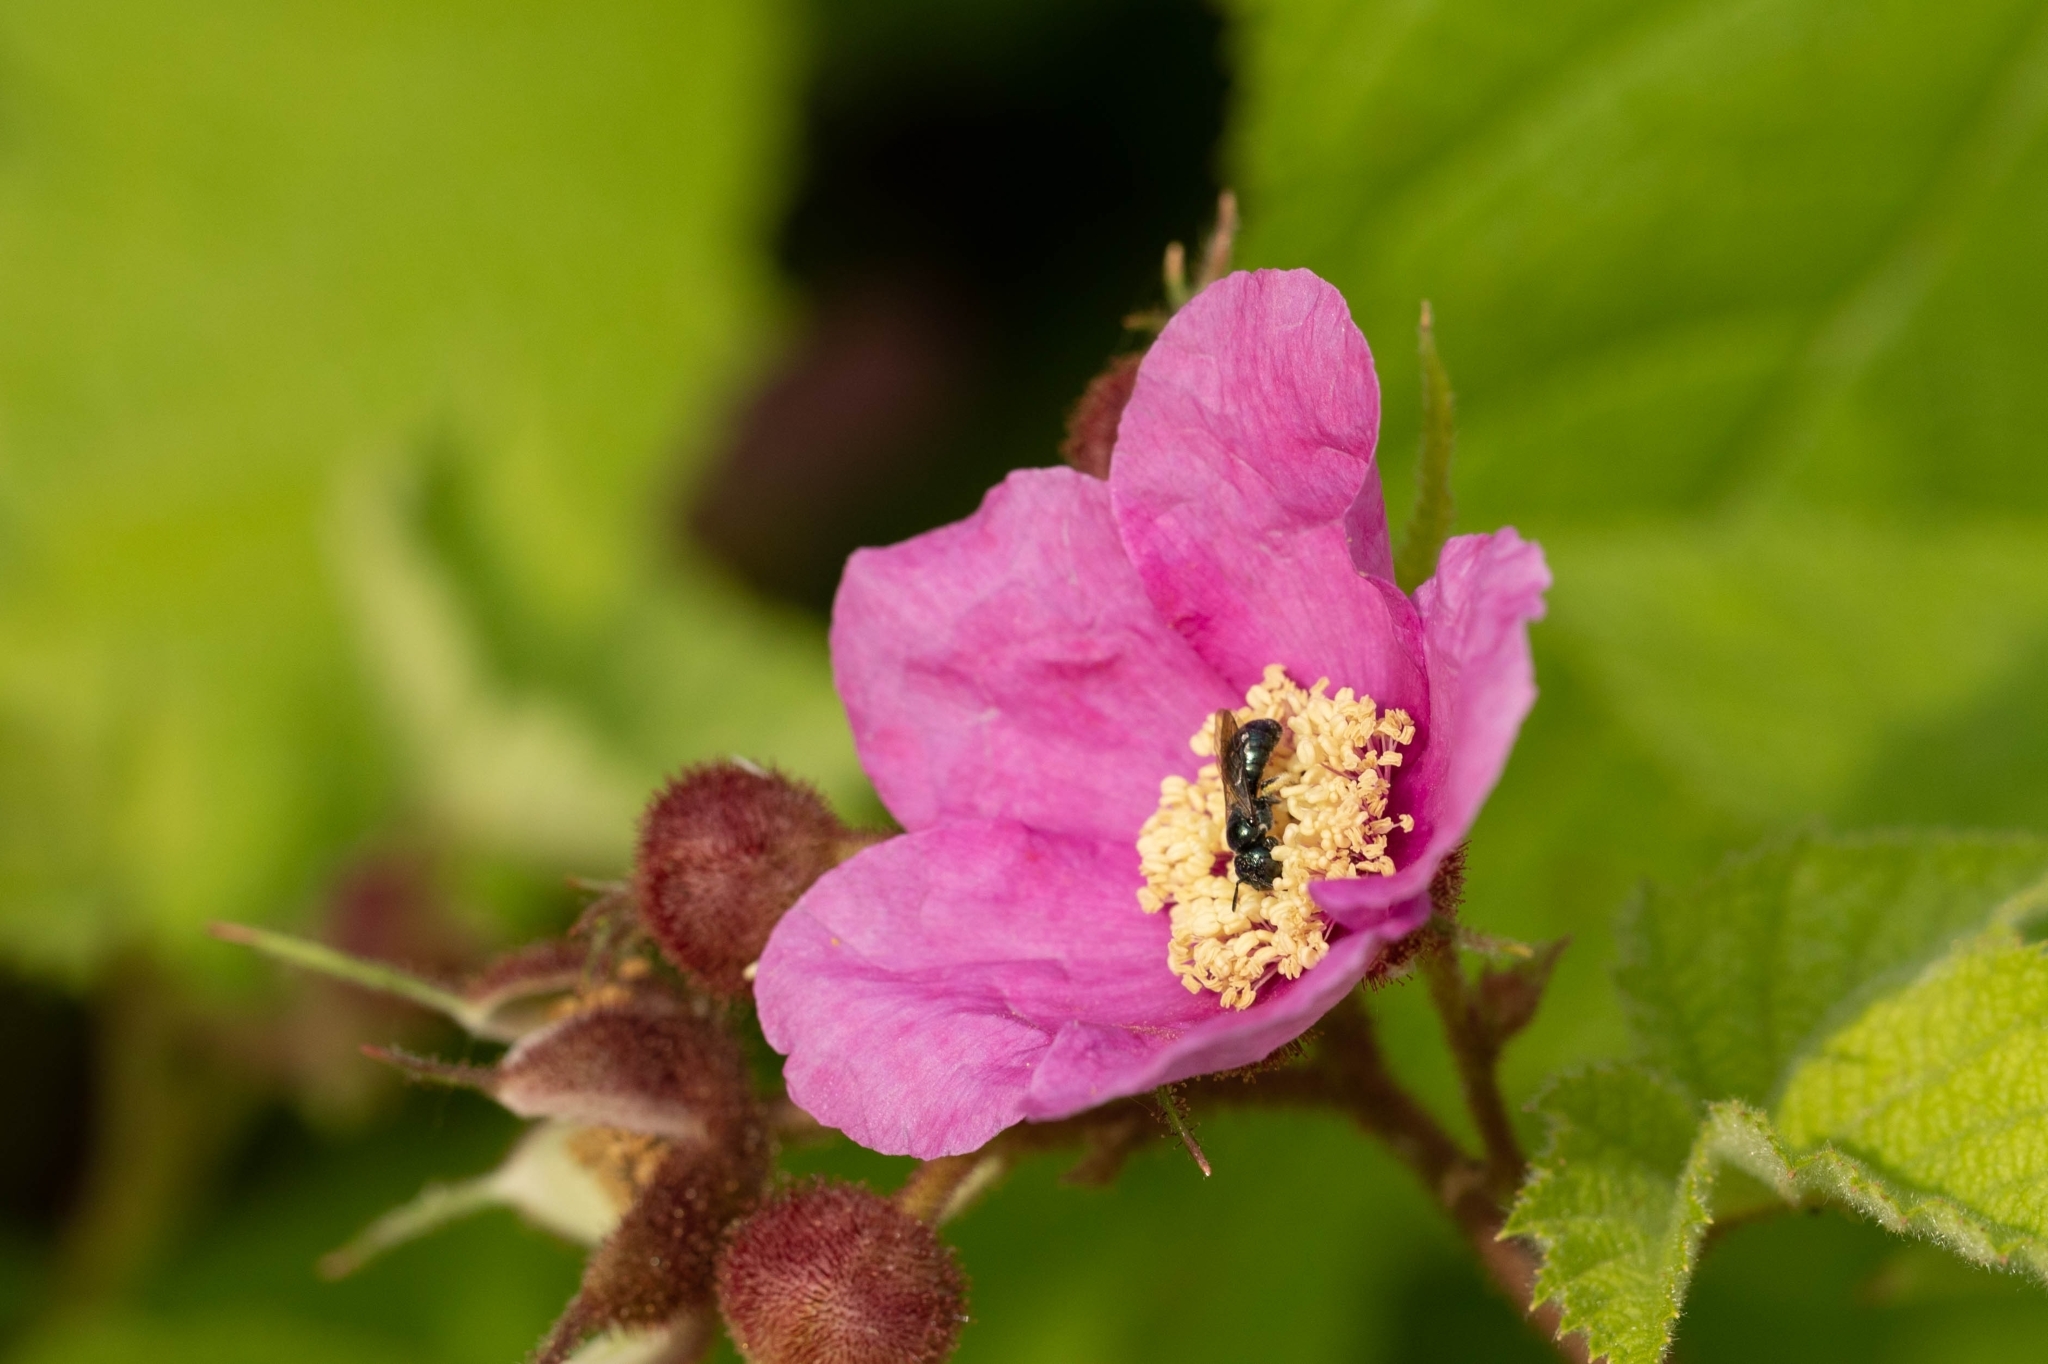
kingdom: Plantae
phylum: Tracheophyta
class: Magnoliopsida
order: Rosales
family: Rosaceae
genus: Rubus
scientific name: Rubus odoratus
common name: Purple-flowered raspberry
